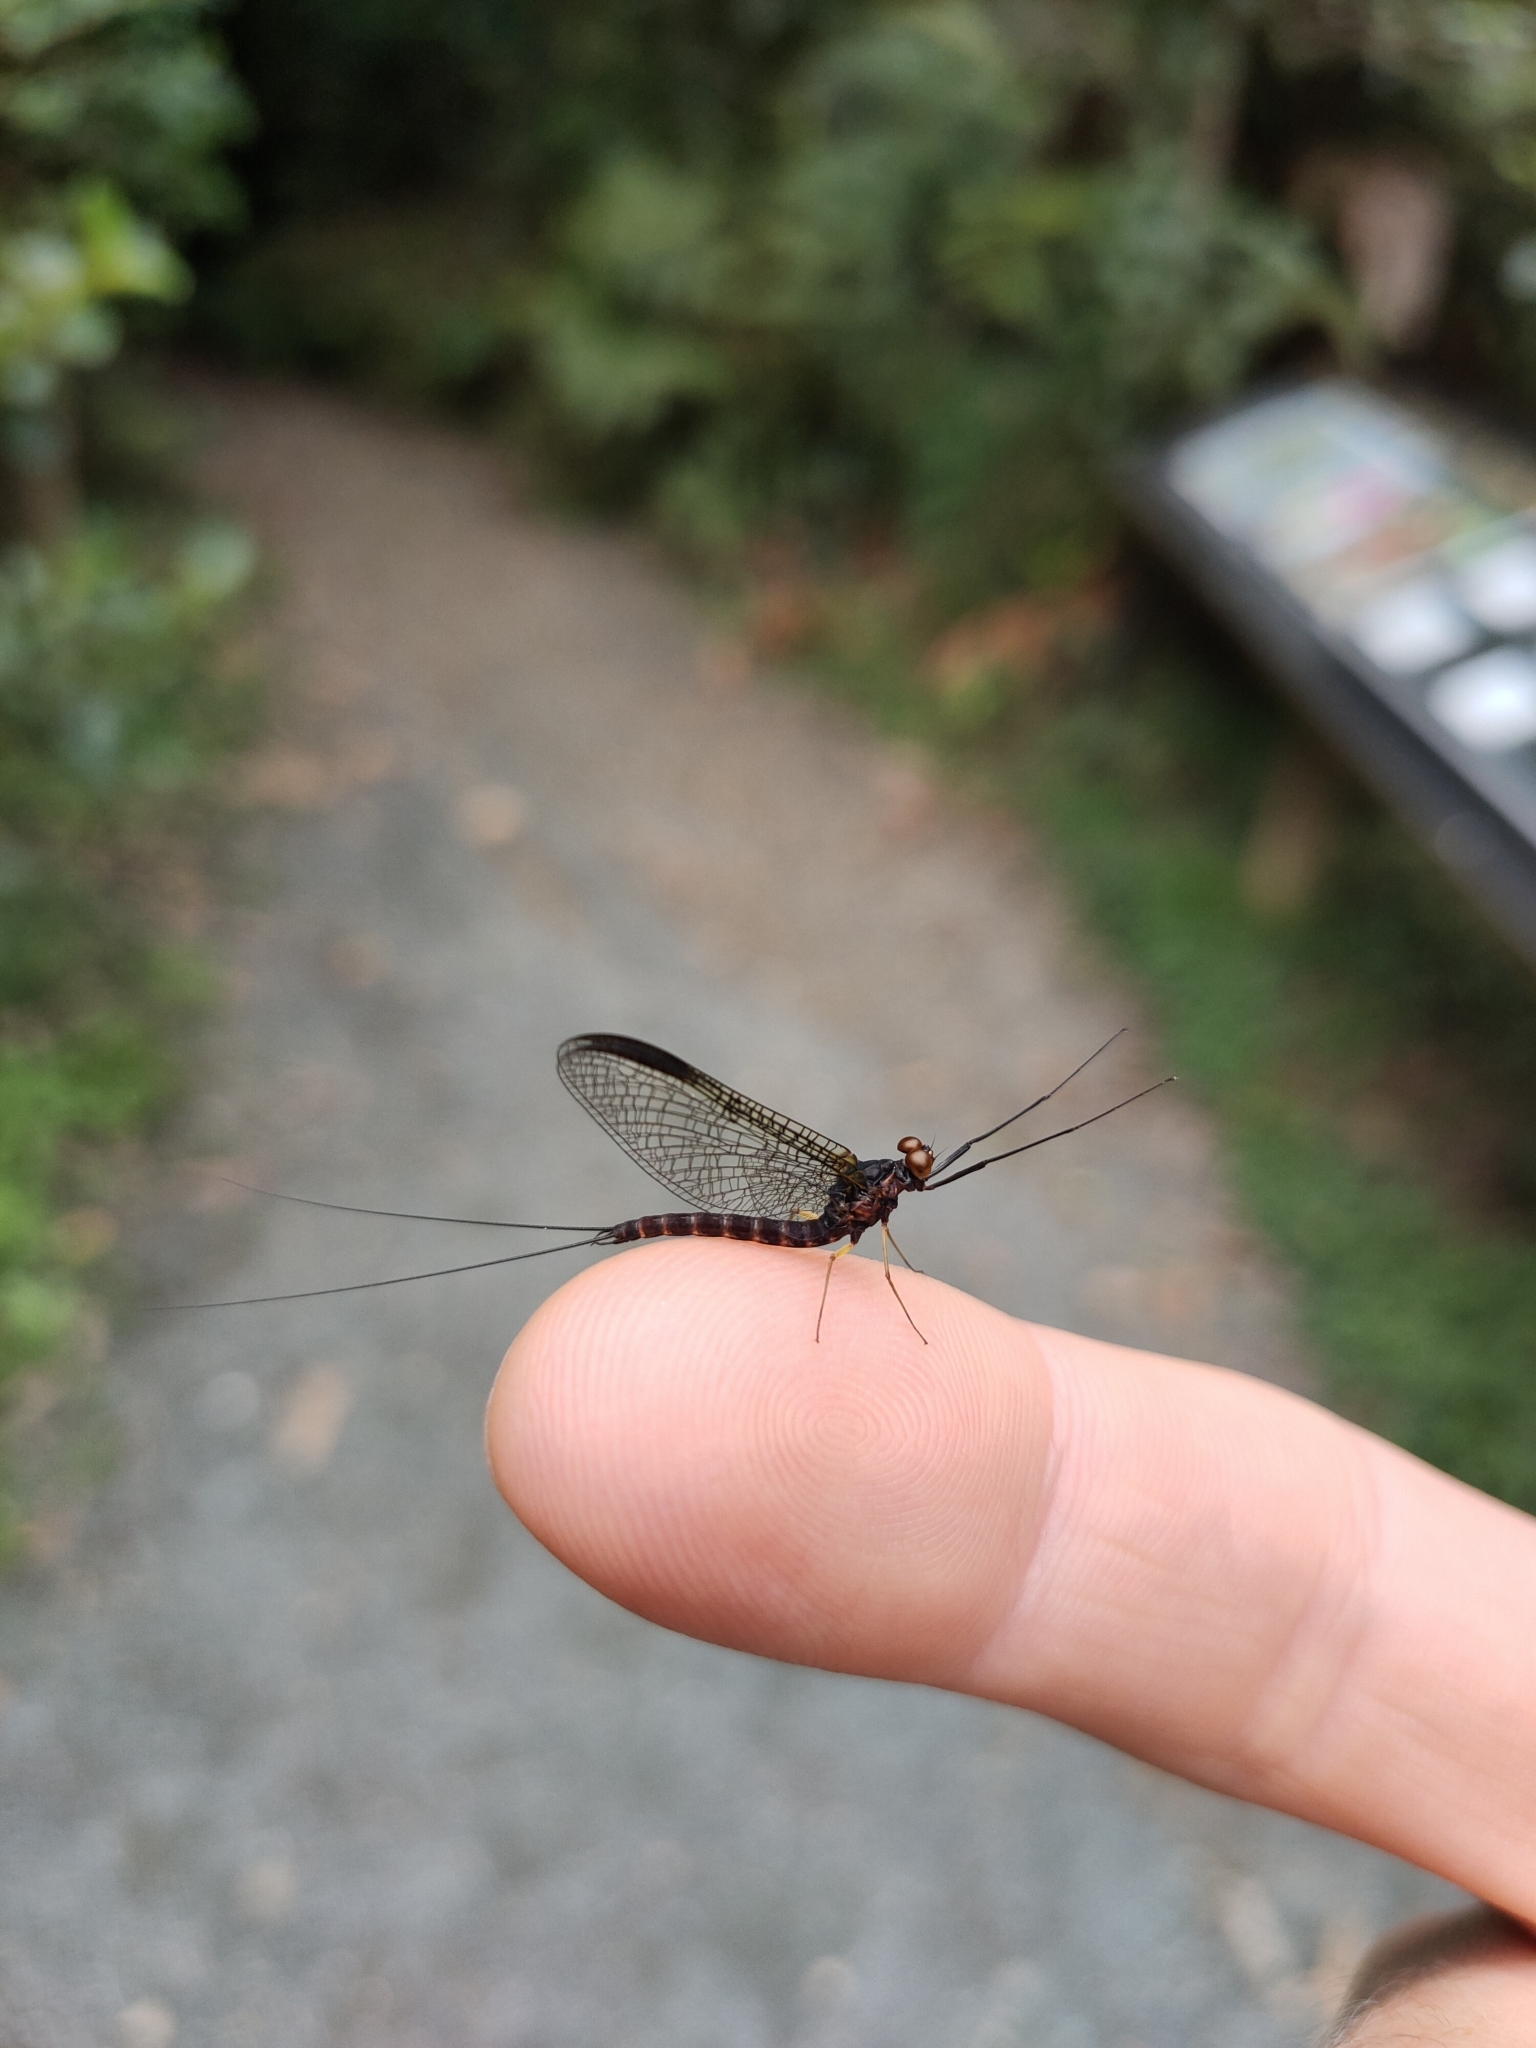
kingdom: Animalia
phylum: Arthropoda
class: Insecta
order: Ephemeroptera
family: Coloburiscidae
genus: Coloburiscus
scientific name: Coloburiscus humeralis
